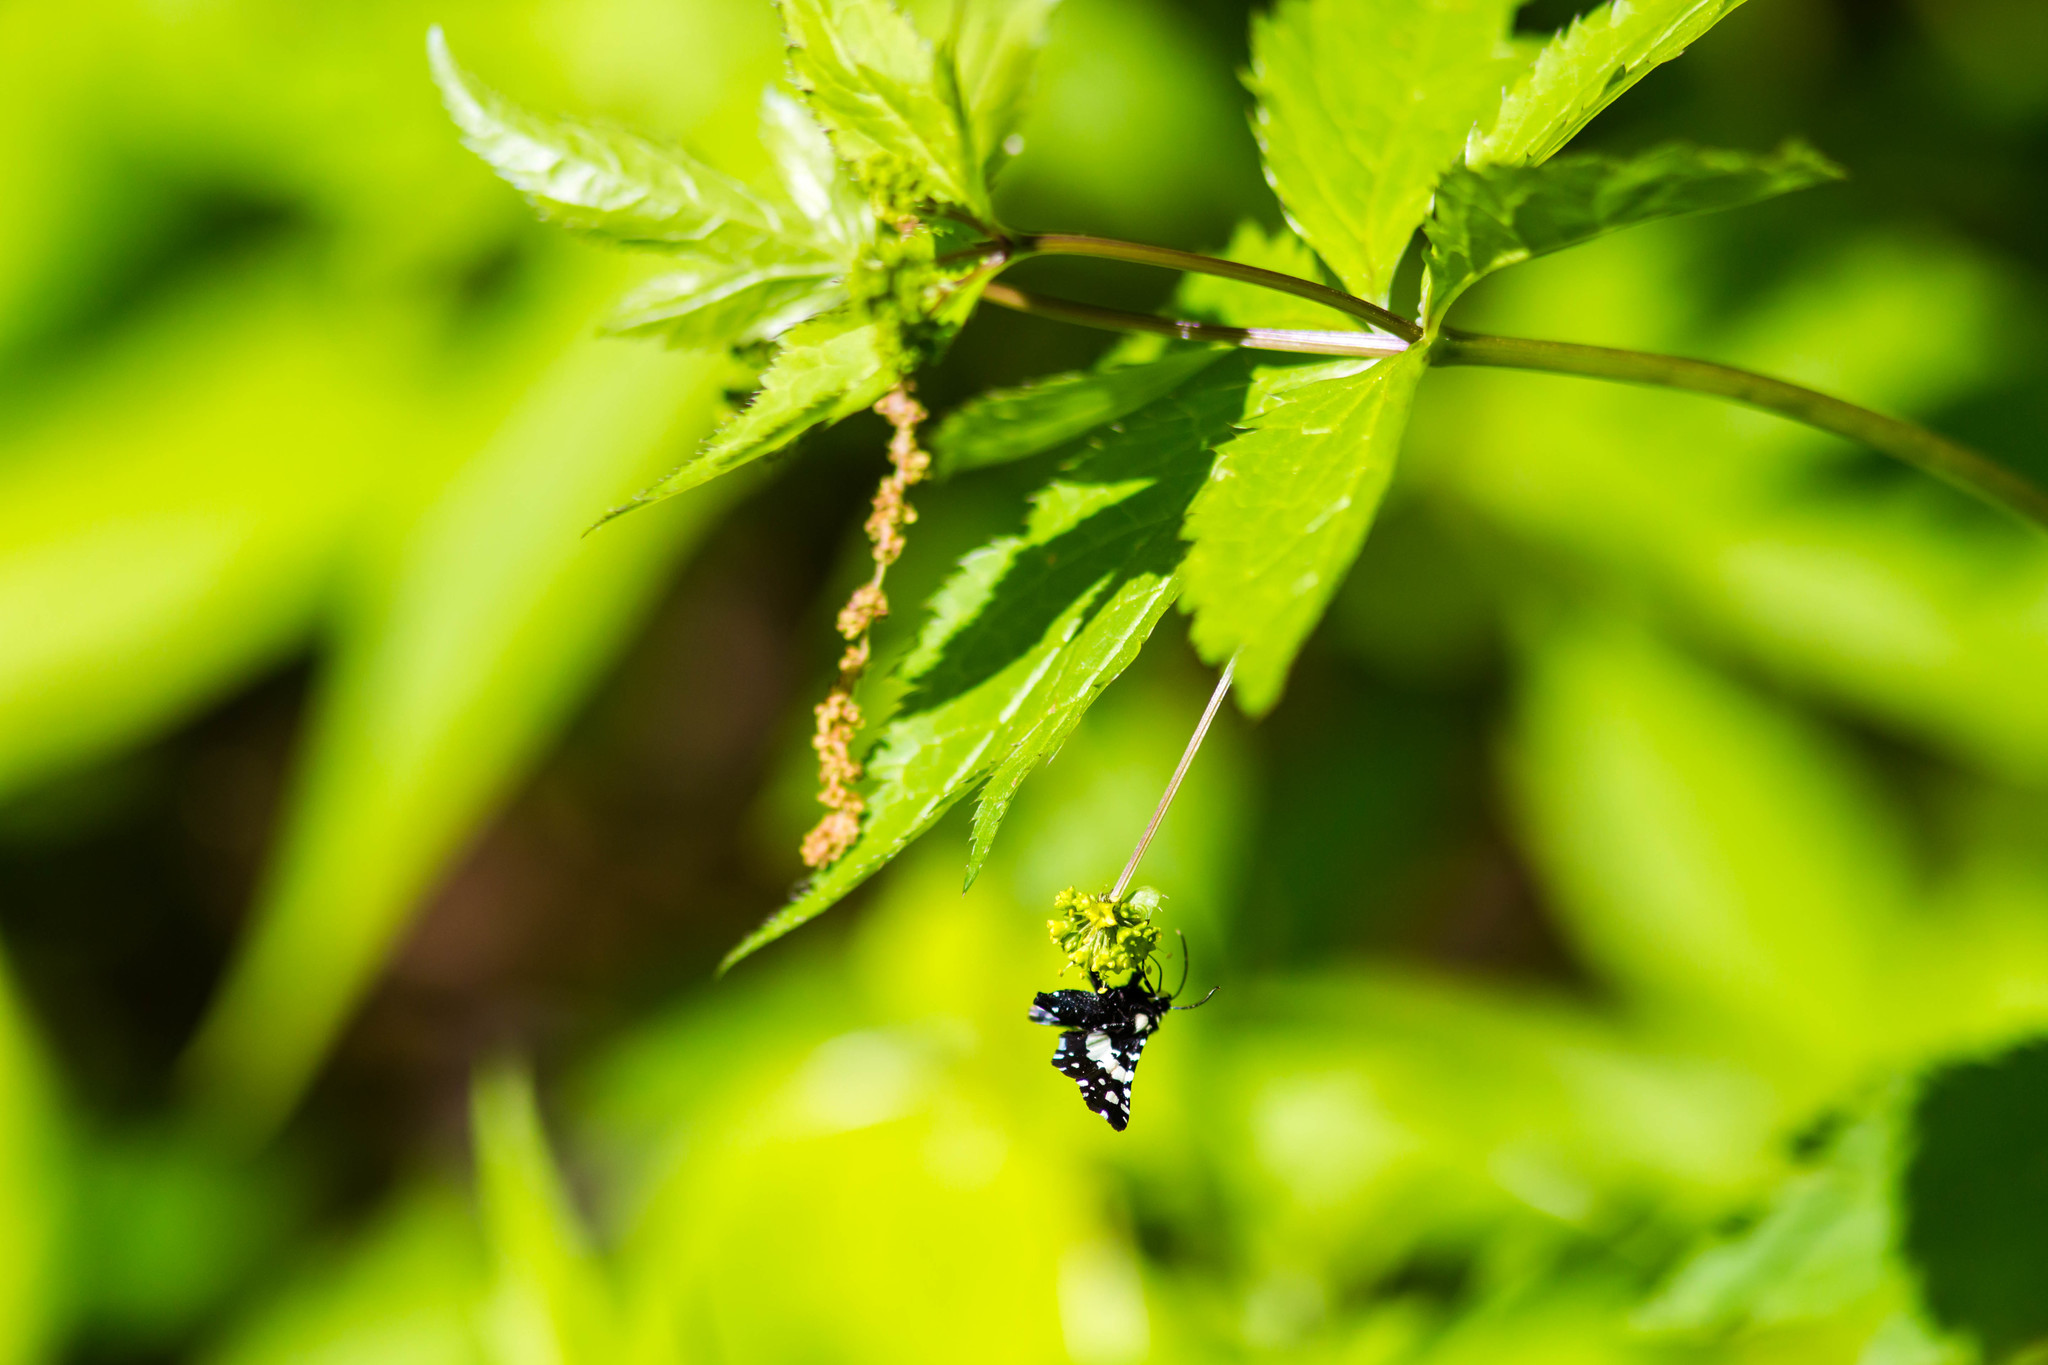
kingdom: Animalia
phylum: Arthropoda
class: Insecta
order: Lepidoptera
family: Thyrididae
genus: Pseudothyris
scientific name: Pseudothyris sepulchralis
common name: Mournful thyris moth
